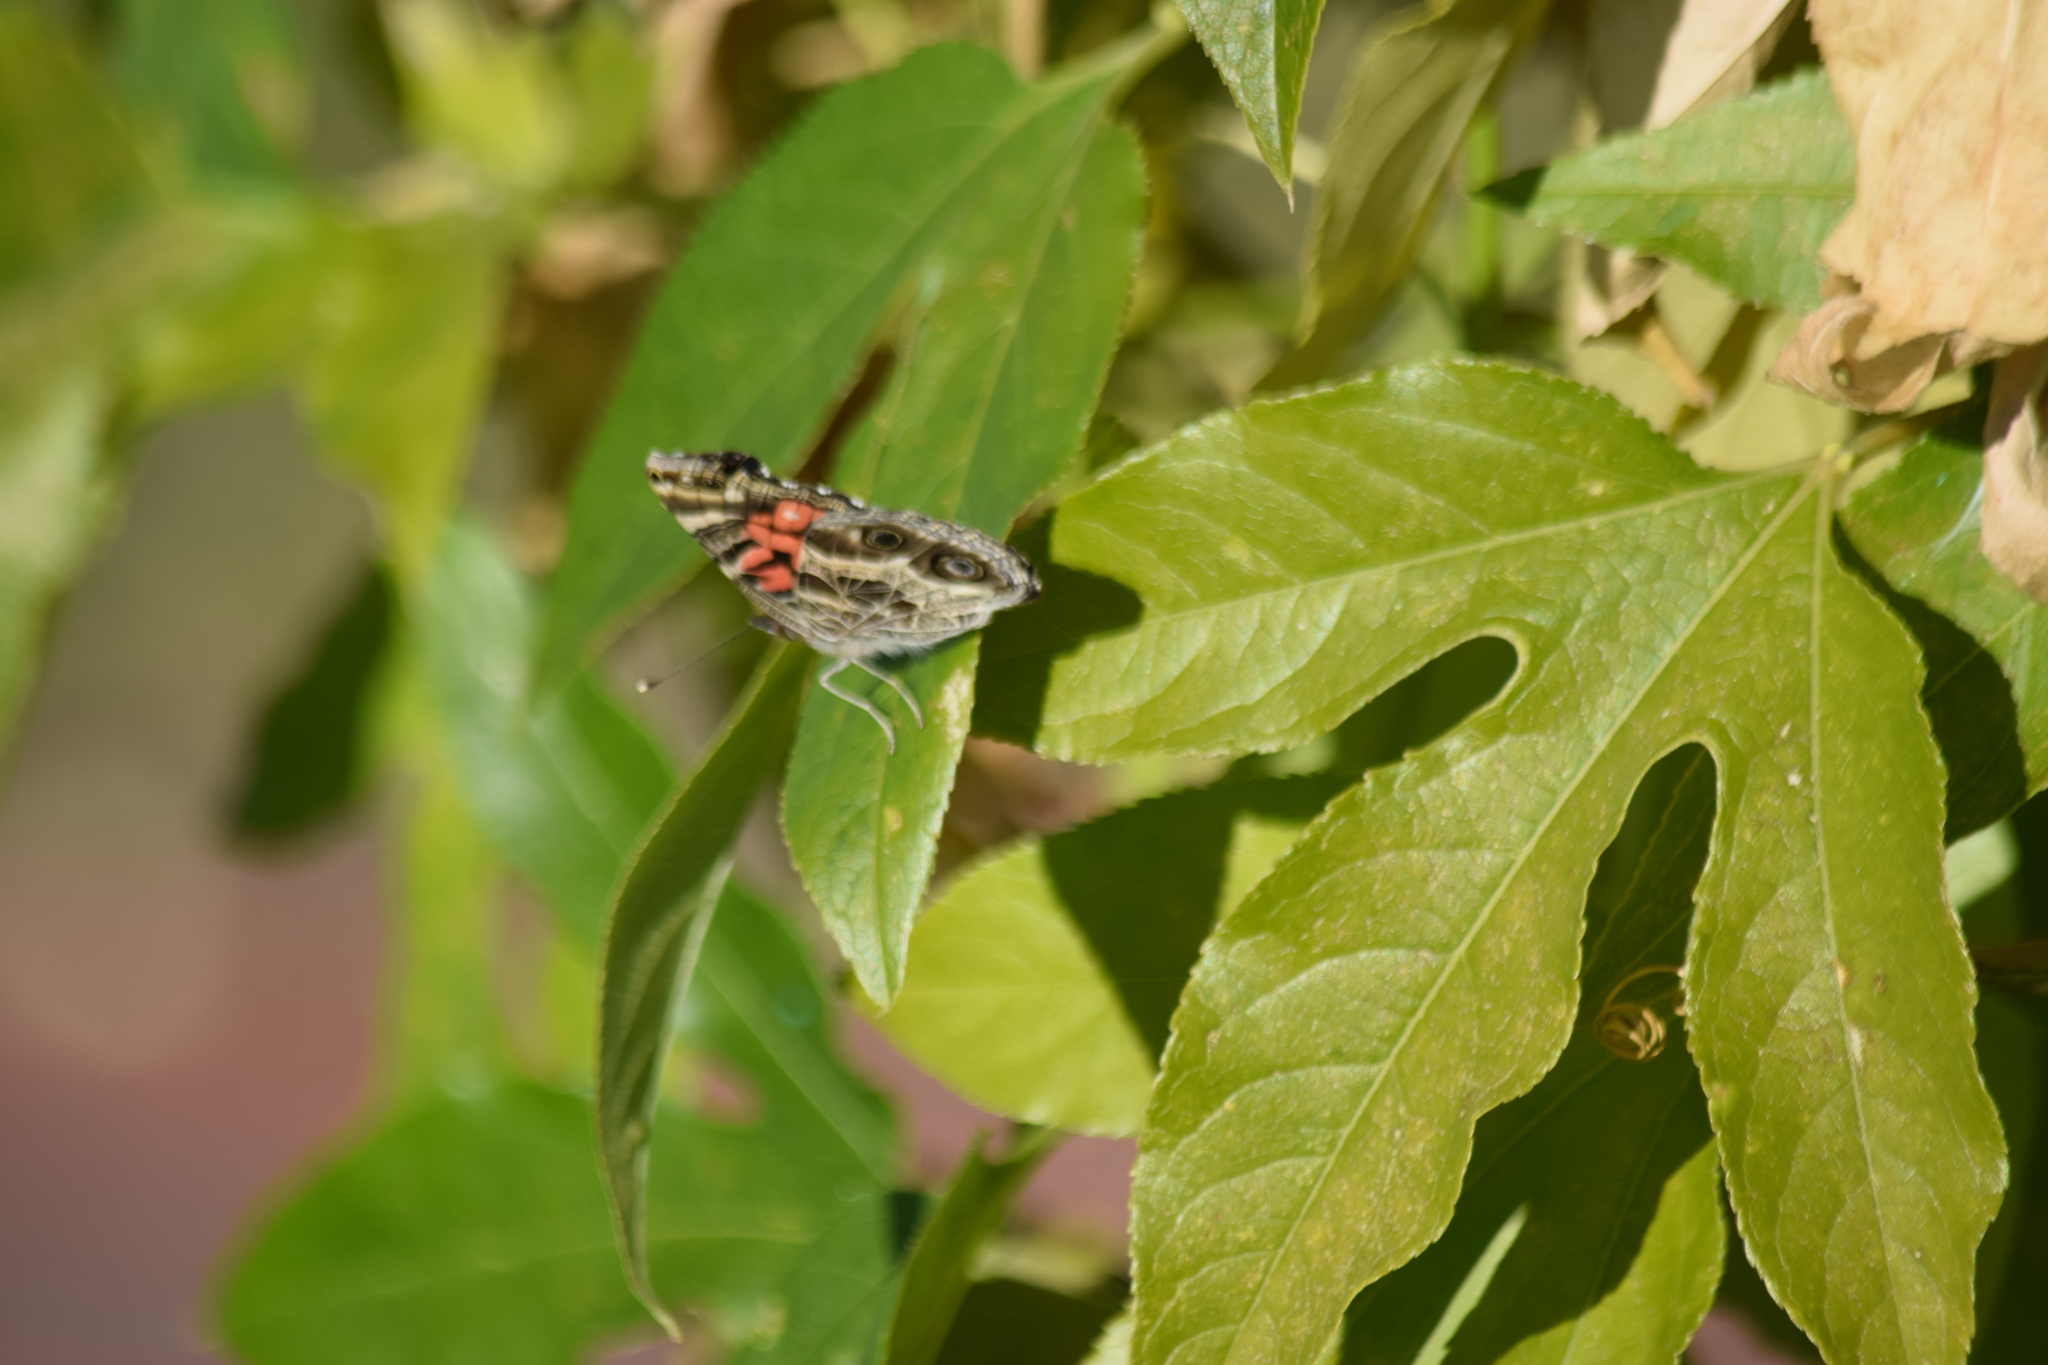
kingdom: Animalia
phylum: Arthropoda
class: Insecta
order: Lepidoptera
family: Nymphalidae
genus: Vanessa
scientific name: Vanessa virginiensis
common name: American lady
